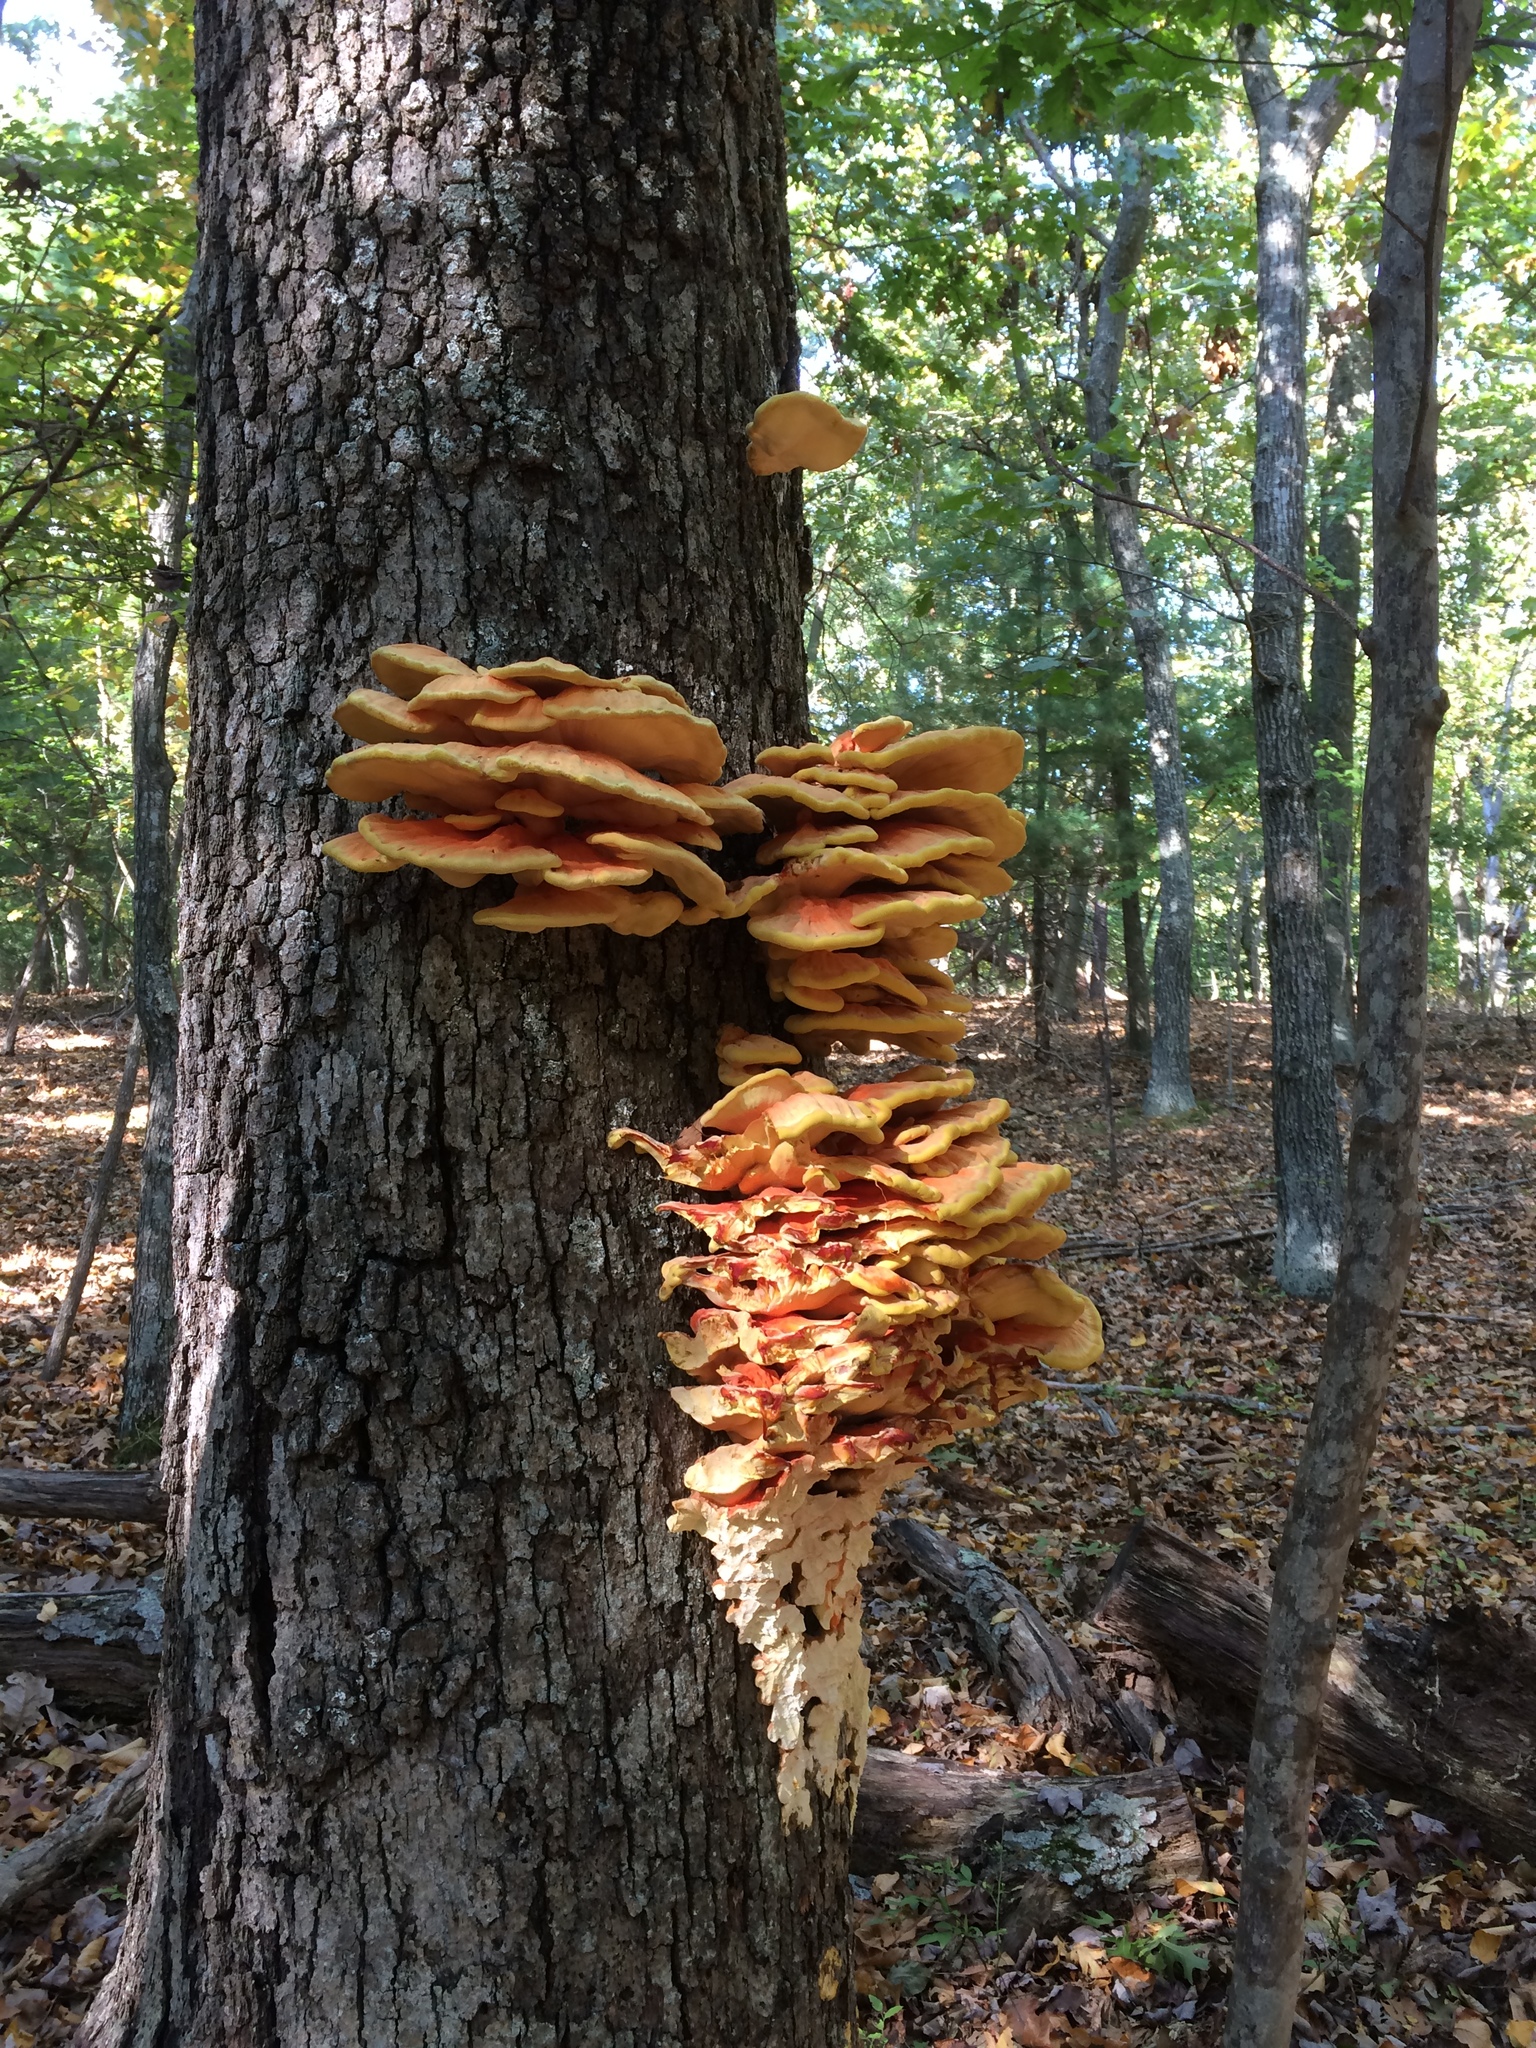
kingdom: Fungi
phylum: Basidiomycota
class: Agaricomycetes
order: Polyporales
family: Laetiporaceae
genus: Laetiporus
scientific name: Laetiporus sulphureus
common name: Chicken of the woods
